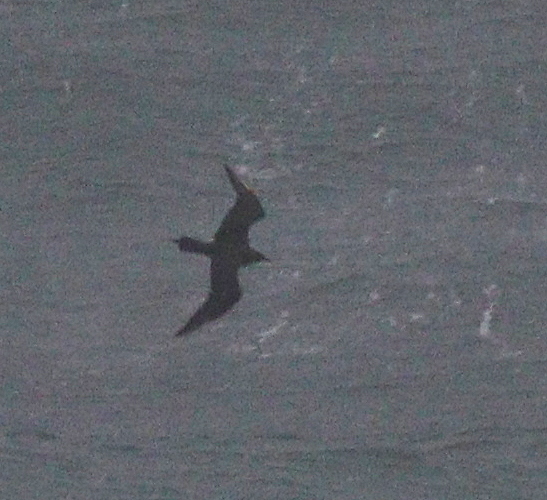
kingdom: Animalia
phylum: Chordata
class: Aves
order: Charadriiformes
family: Stercorariidae
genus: Stercorarius
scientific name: Stercorarius parasiticus
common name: Parasitic jaeger
